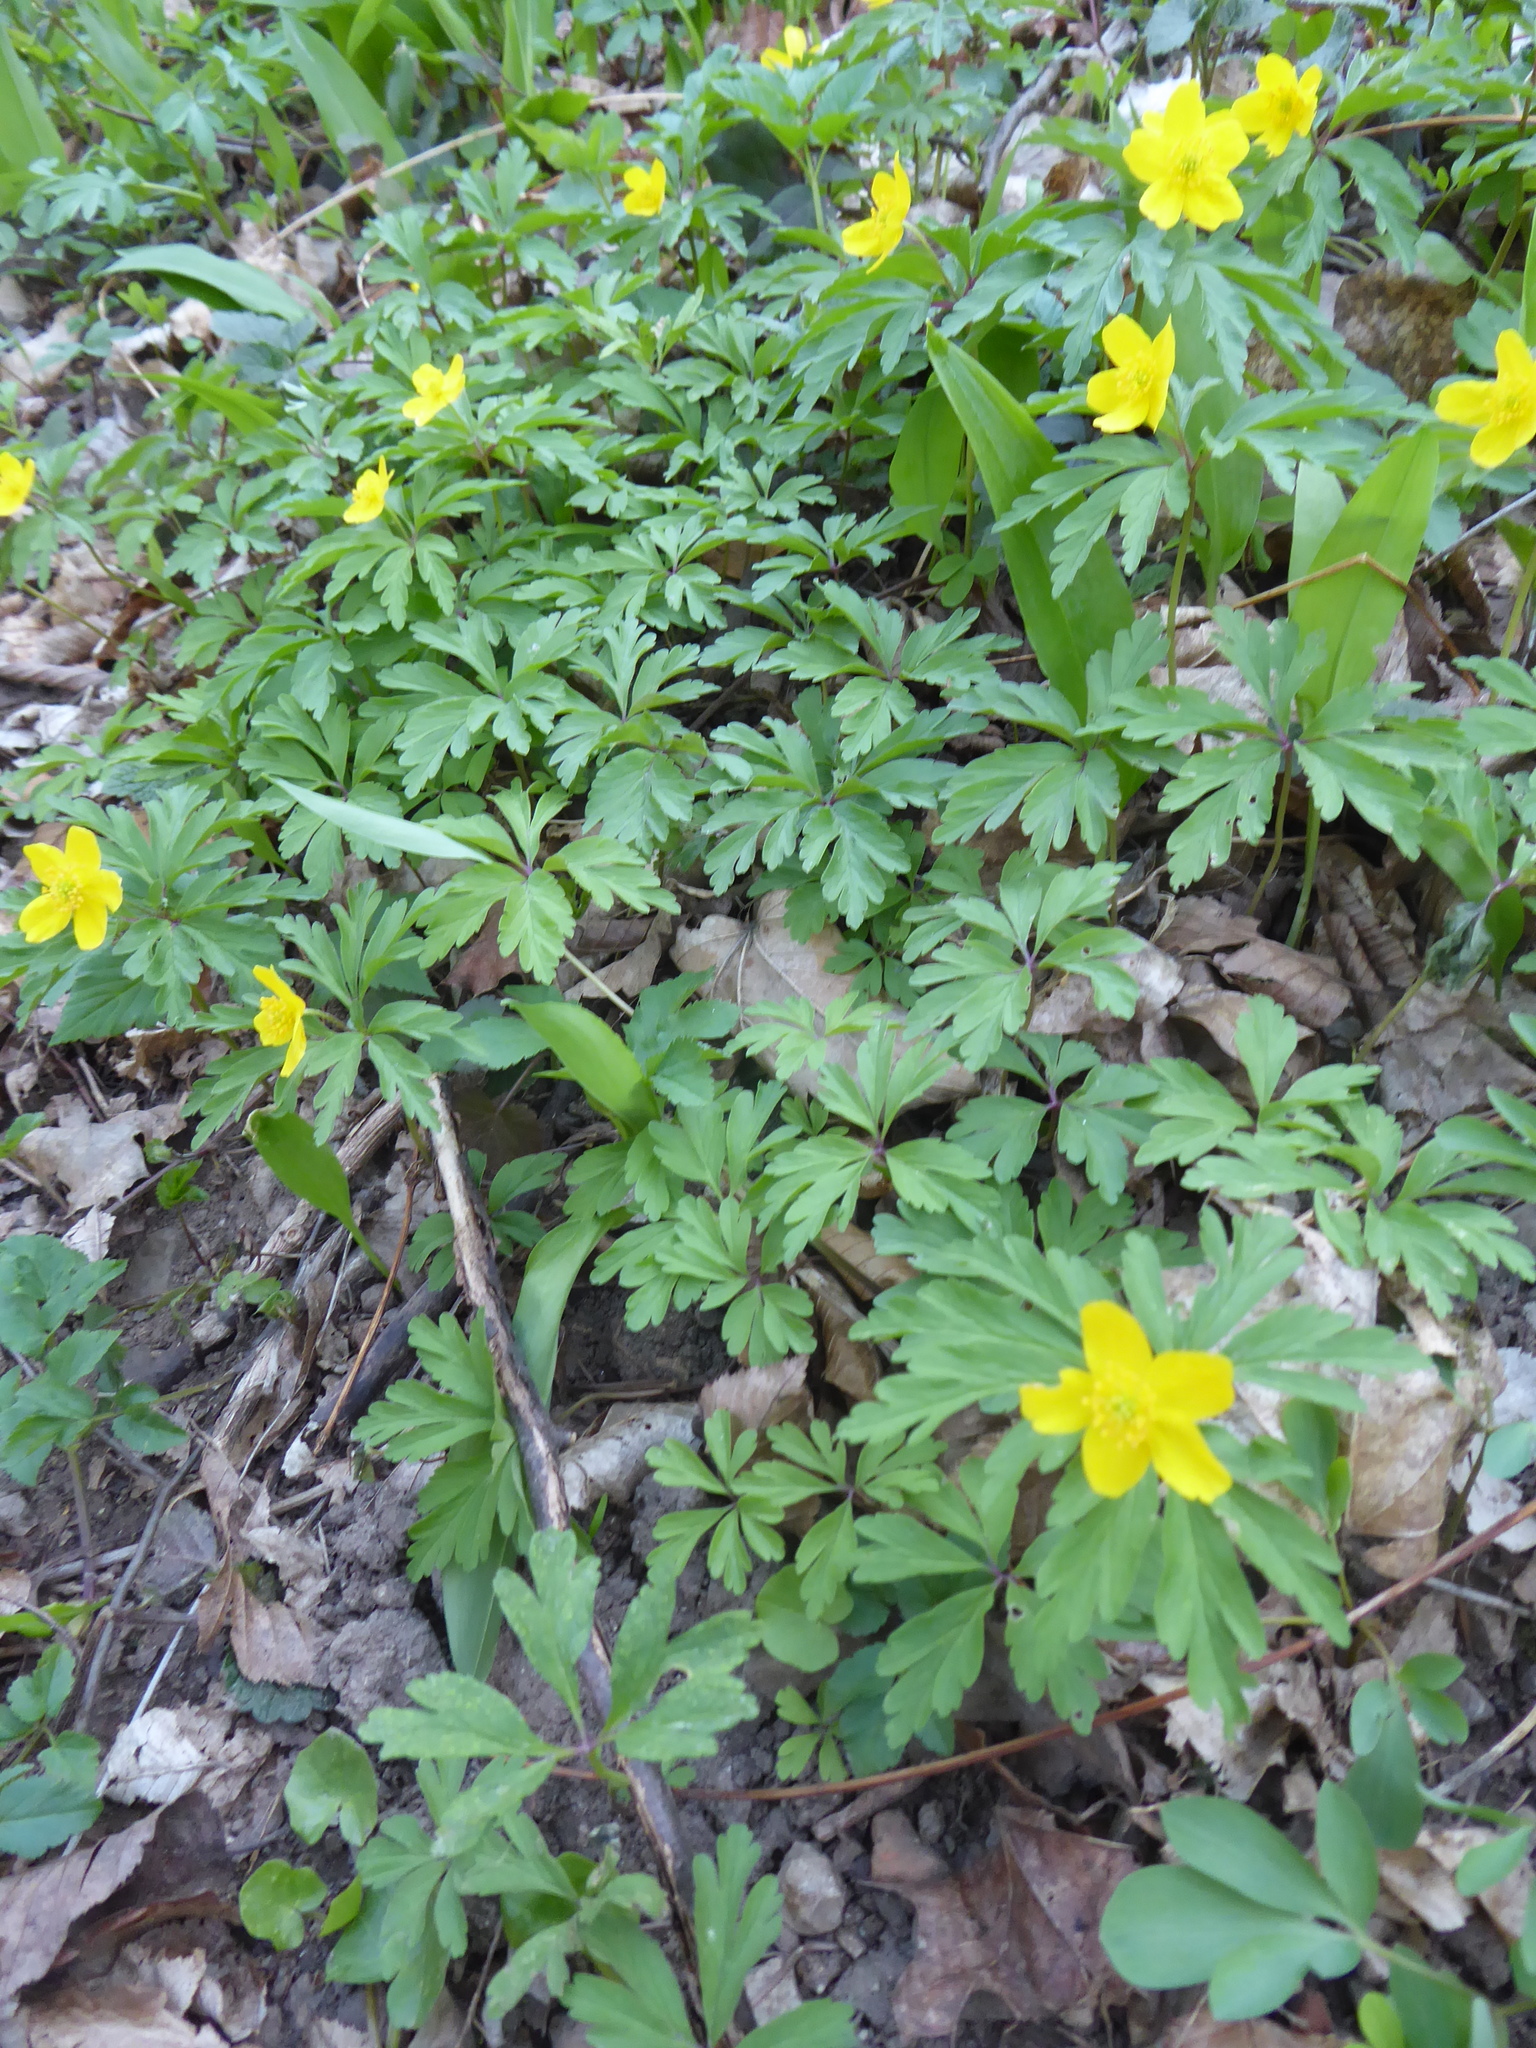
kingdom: Plantae
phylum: Tracheophyta
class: Magnoliopsida
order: Ranunculales
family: Ranunculaceae
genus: Anemone
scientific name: Anemone ranunculoides
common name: Yellow anemone
